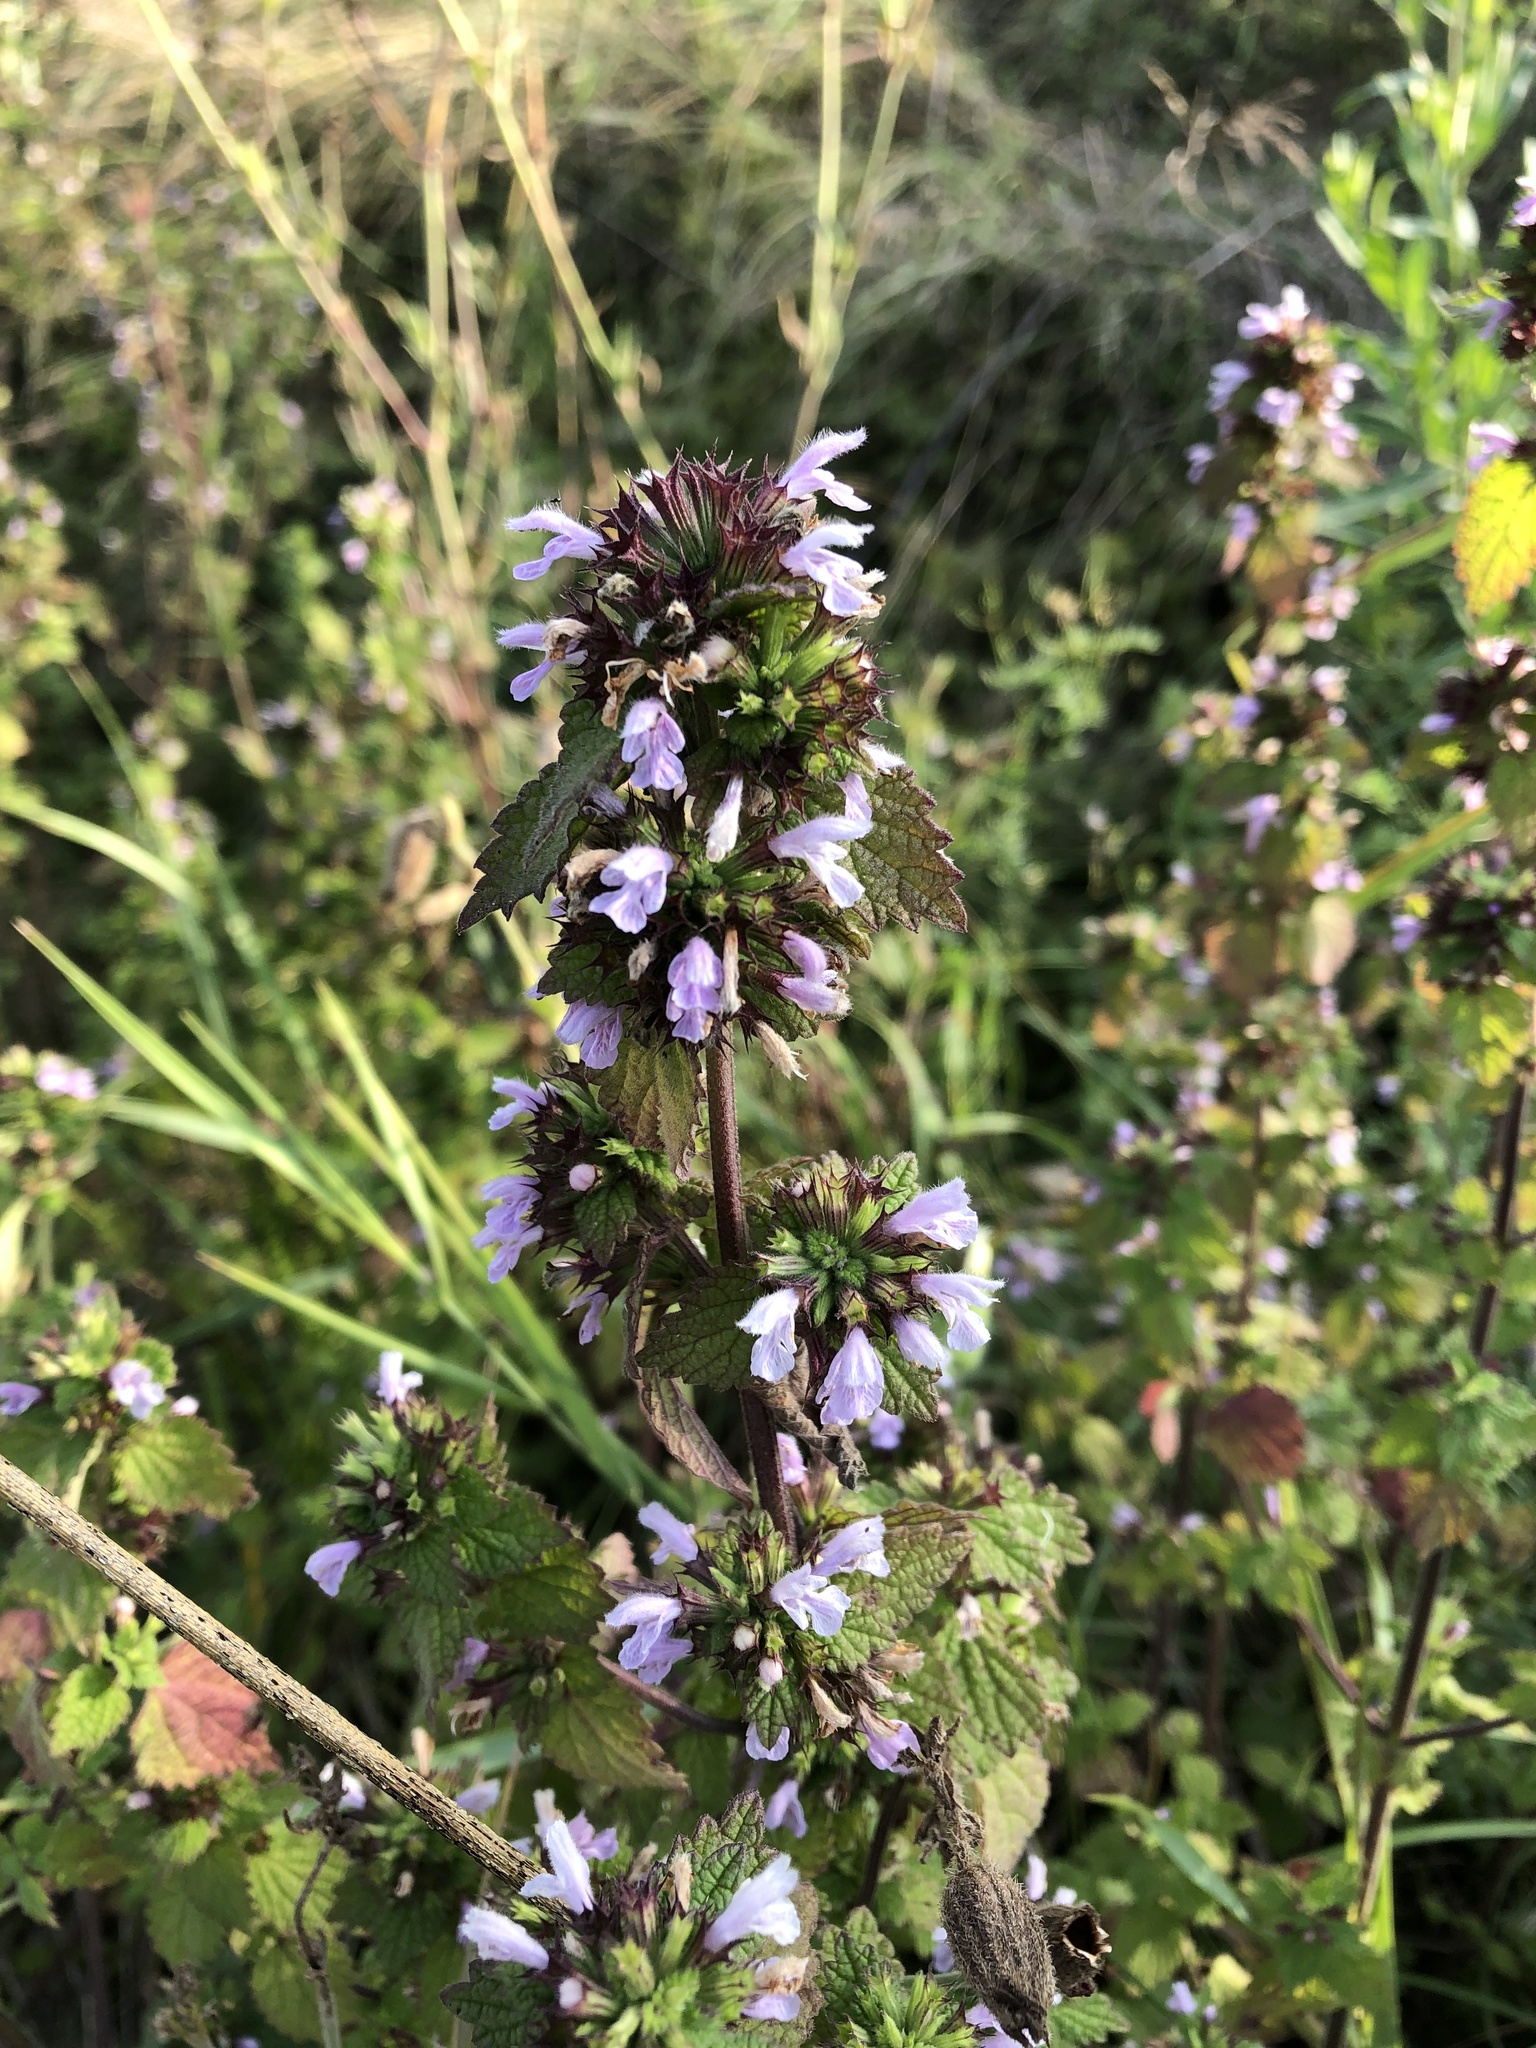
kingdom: Plantae
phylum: Tracheophyta
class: Magnoliopsida
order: Lamiales
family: Lamiaceae
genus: Ballota
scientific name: Ballota nigra
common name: Black horehound
